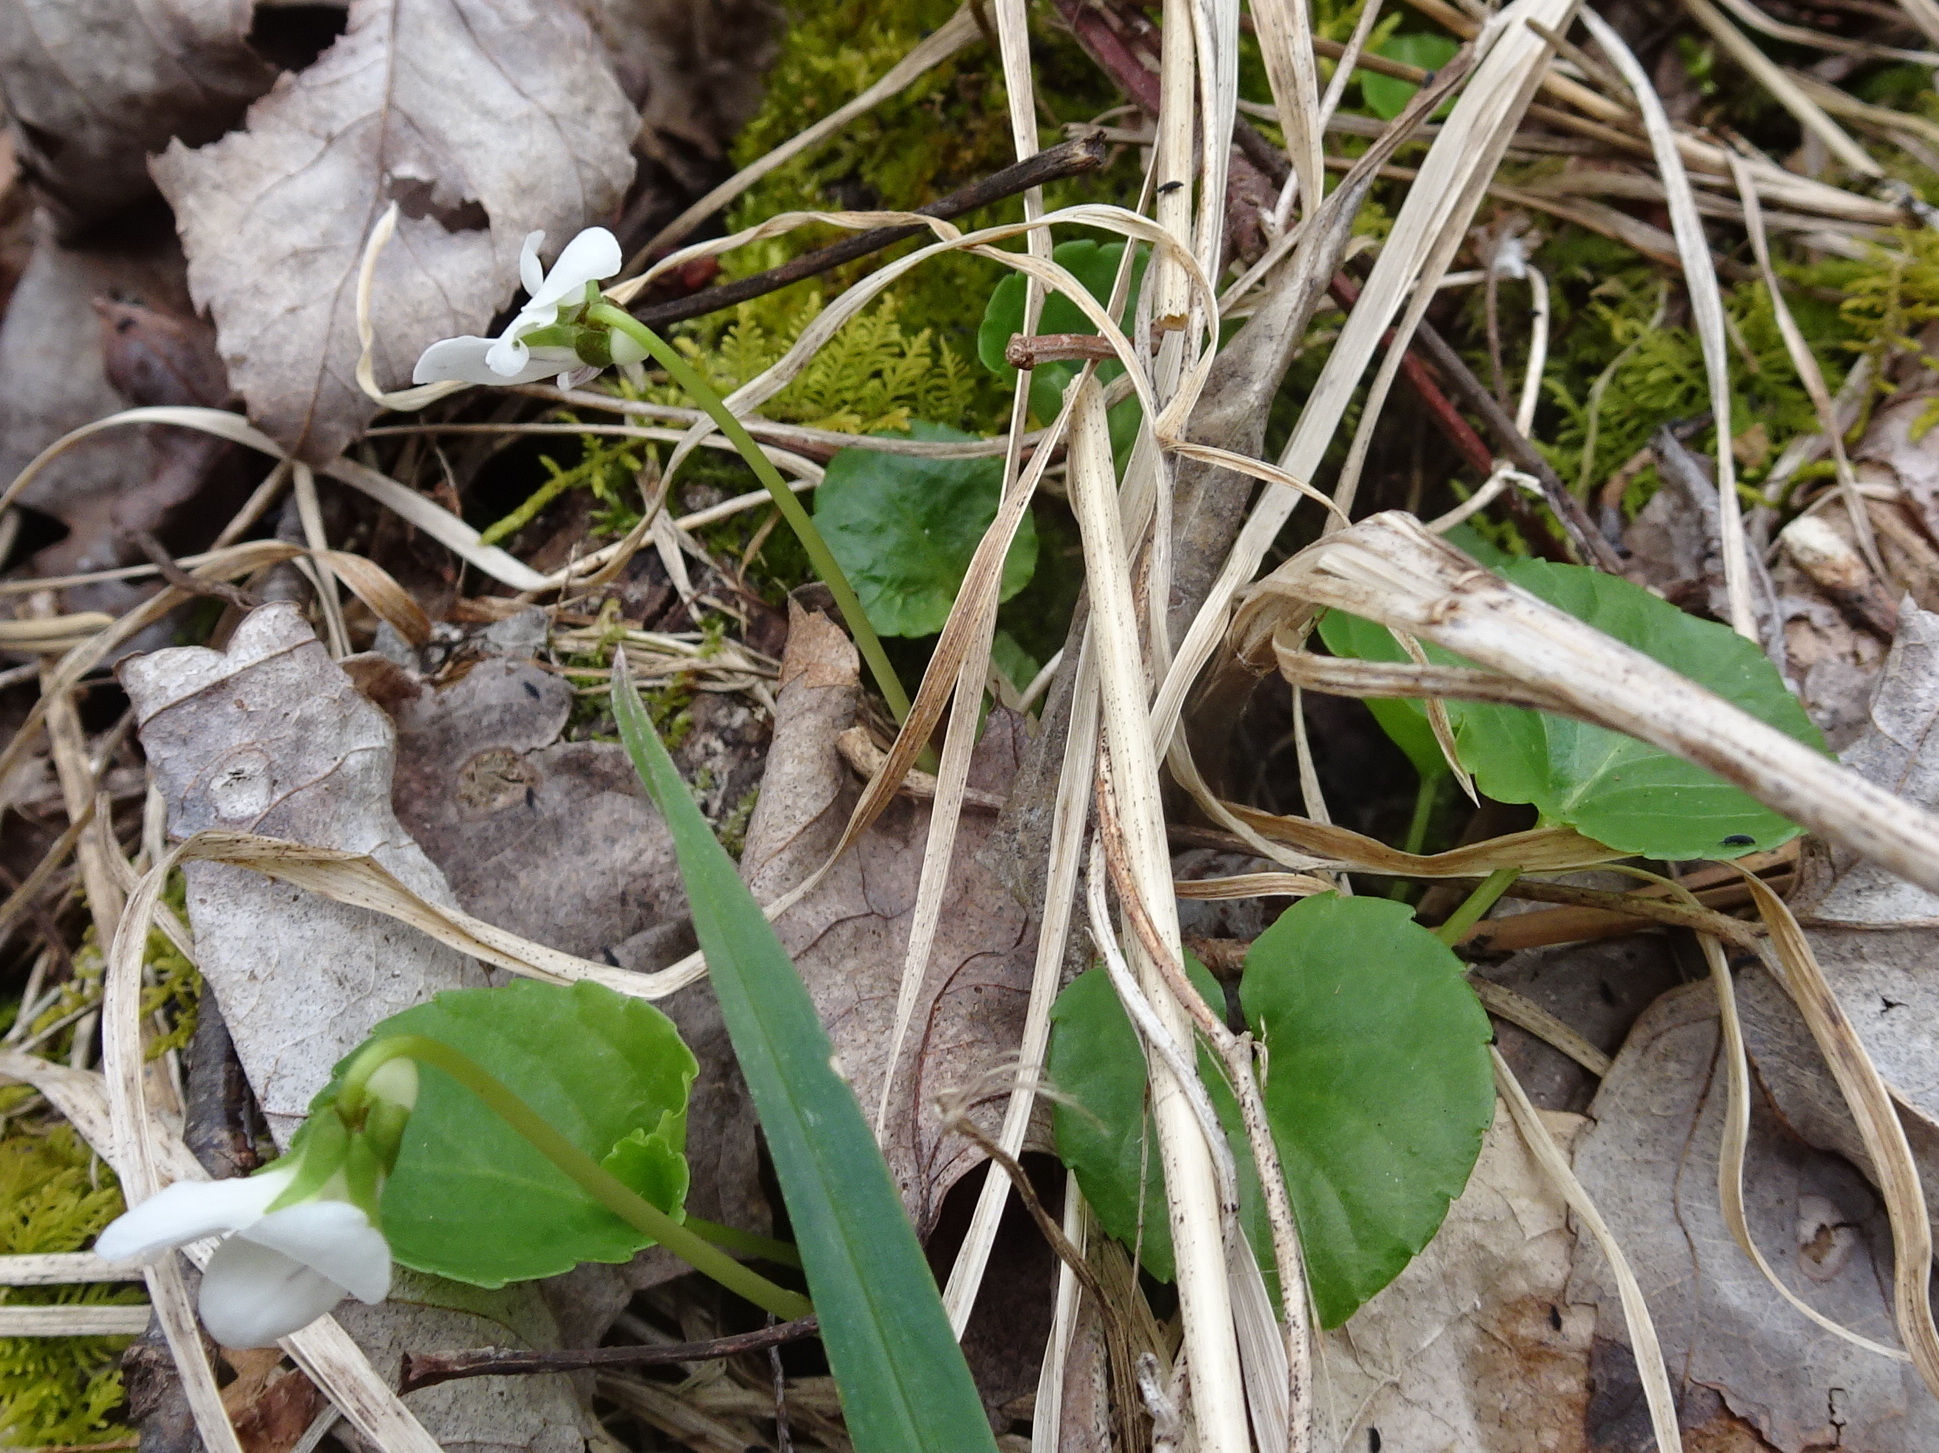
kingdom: Plantae
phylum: Tracheophyta
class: Magnoliopsida
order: Malpighiales
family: Violaceae
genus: Viola
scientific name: Viola minuscula
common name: Northern white violet
